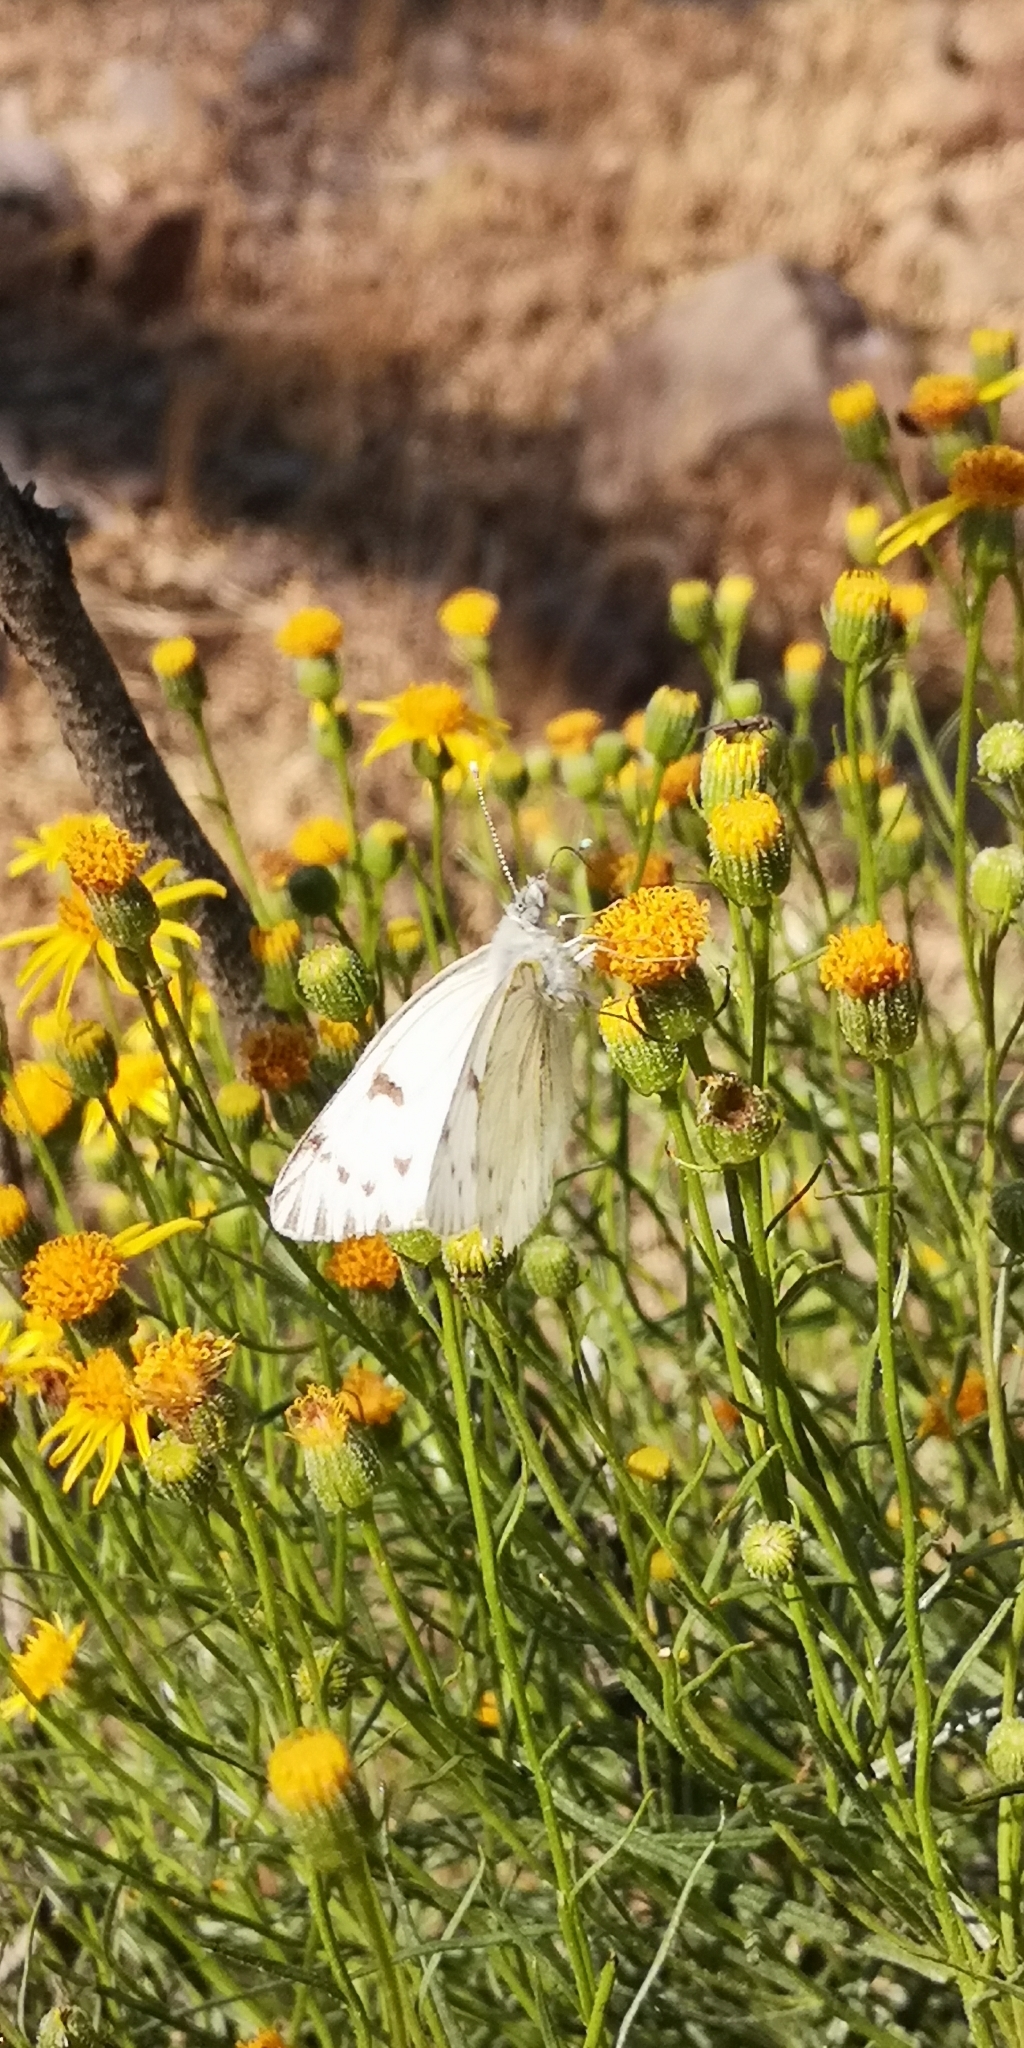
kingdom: Animalia
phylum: Arthropoda
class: Insecta
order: Lepidoptera
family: Pieridae
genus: Tatochila
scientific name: Tatochila mercedis
